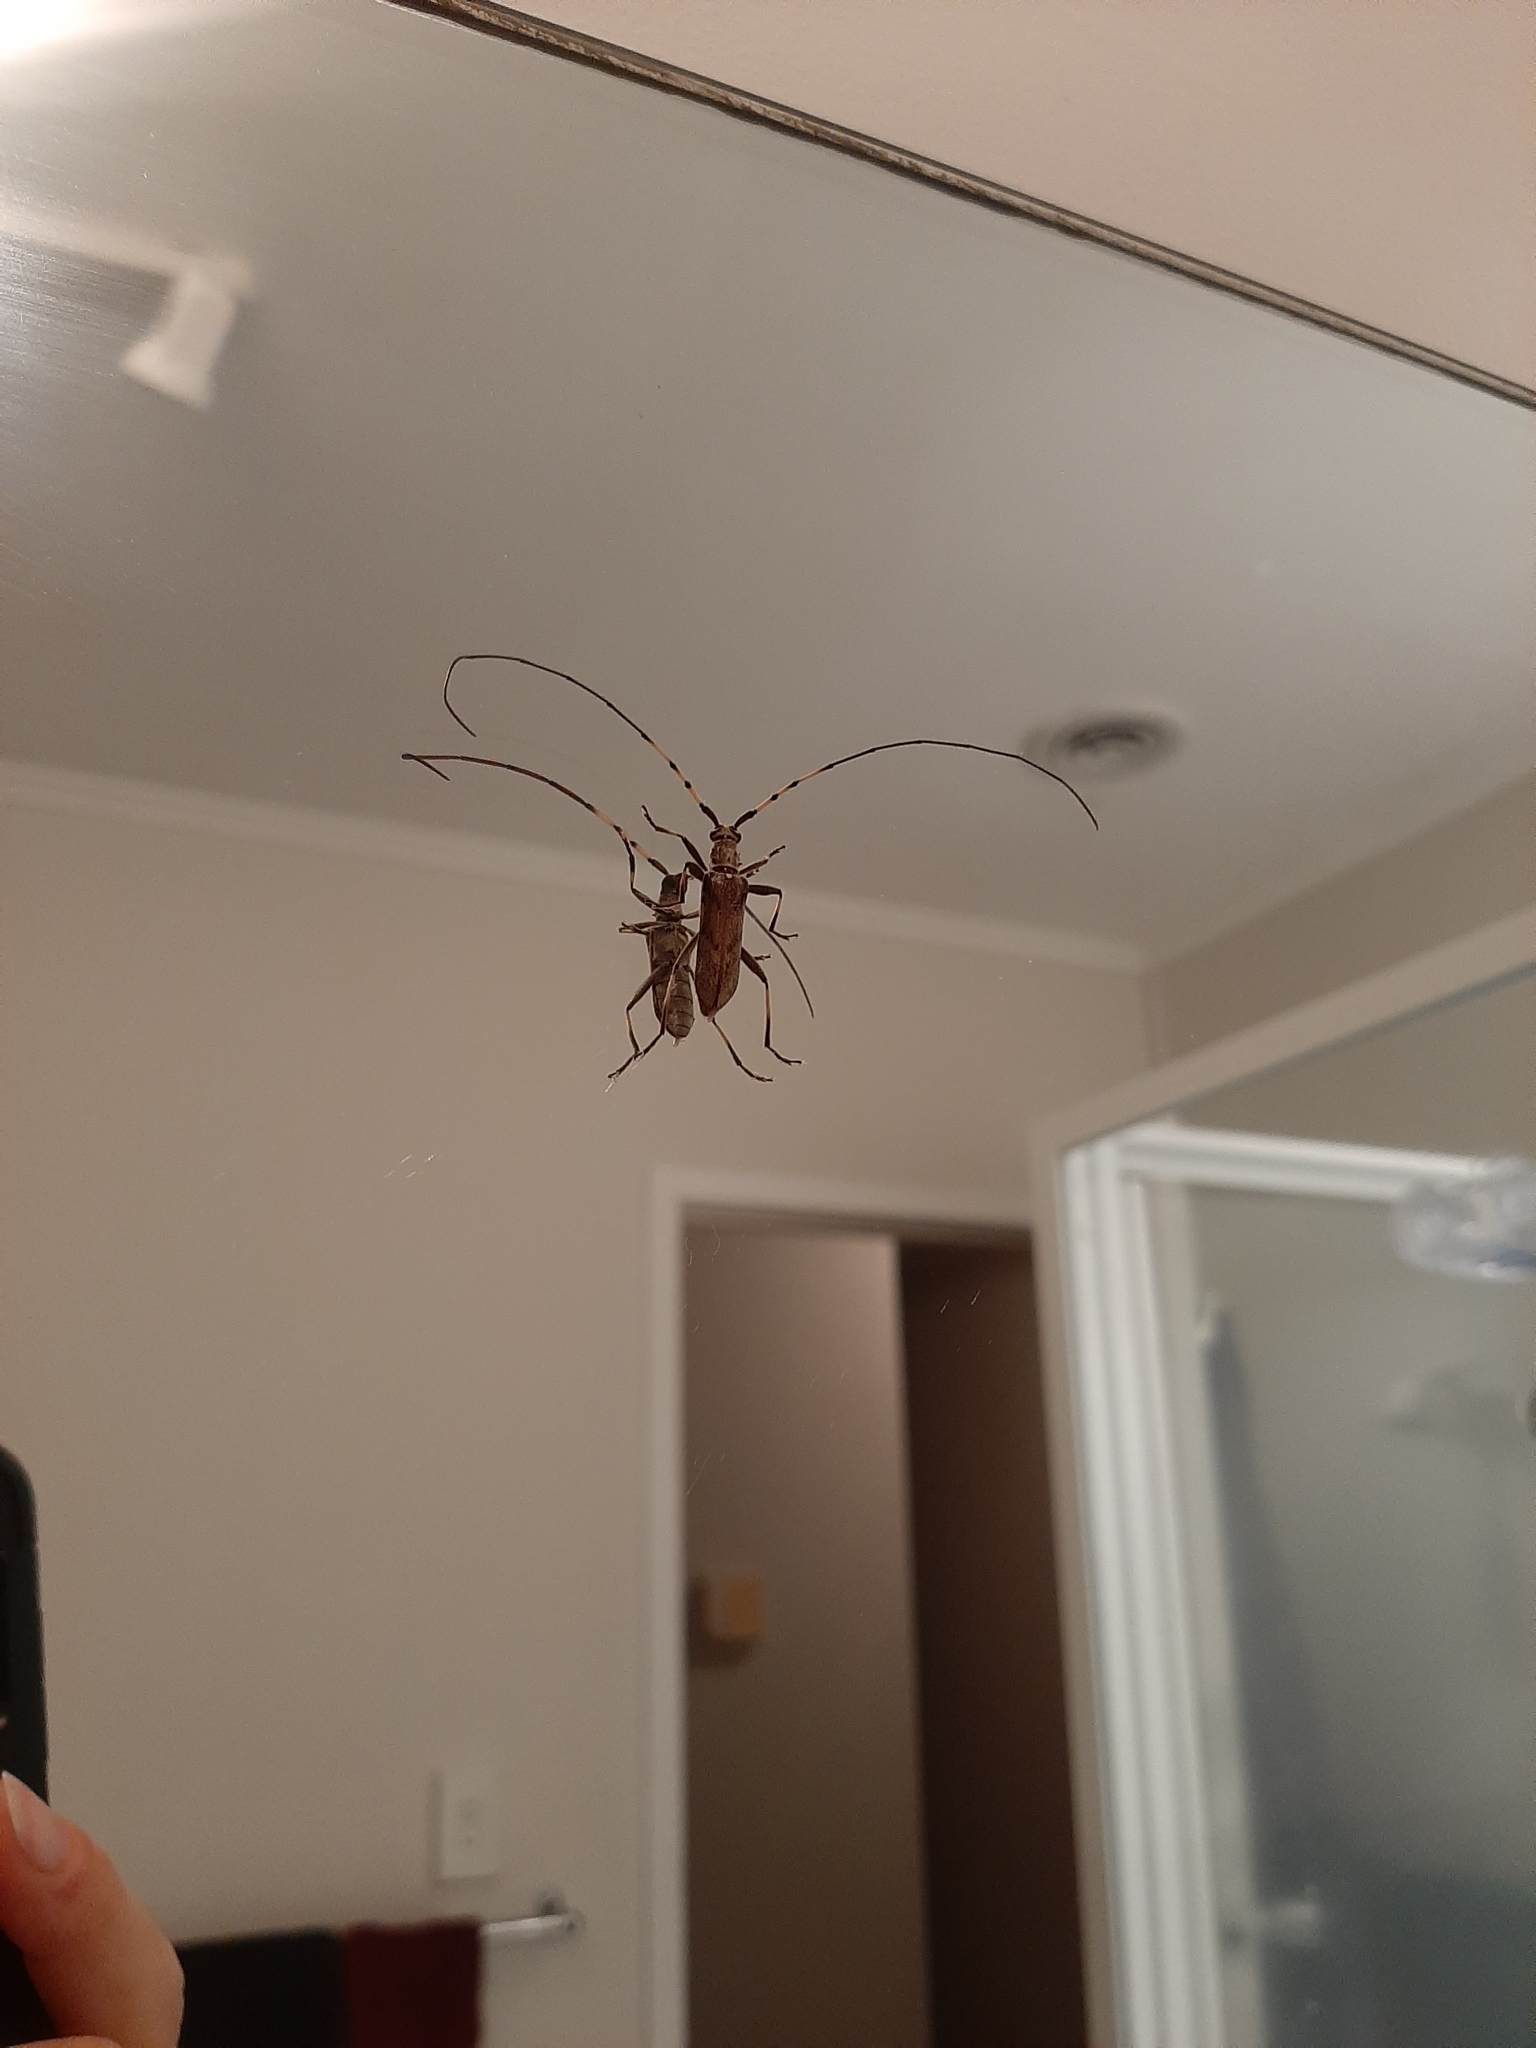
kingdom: Animalia
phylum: Arthropoda
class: Insecta
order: Coleoptera
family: Cerambycidae
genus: Didymocantha
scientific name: Didymocantha obliqua
